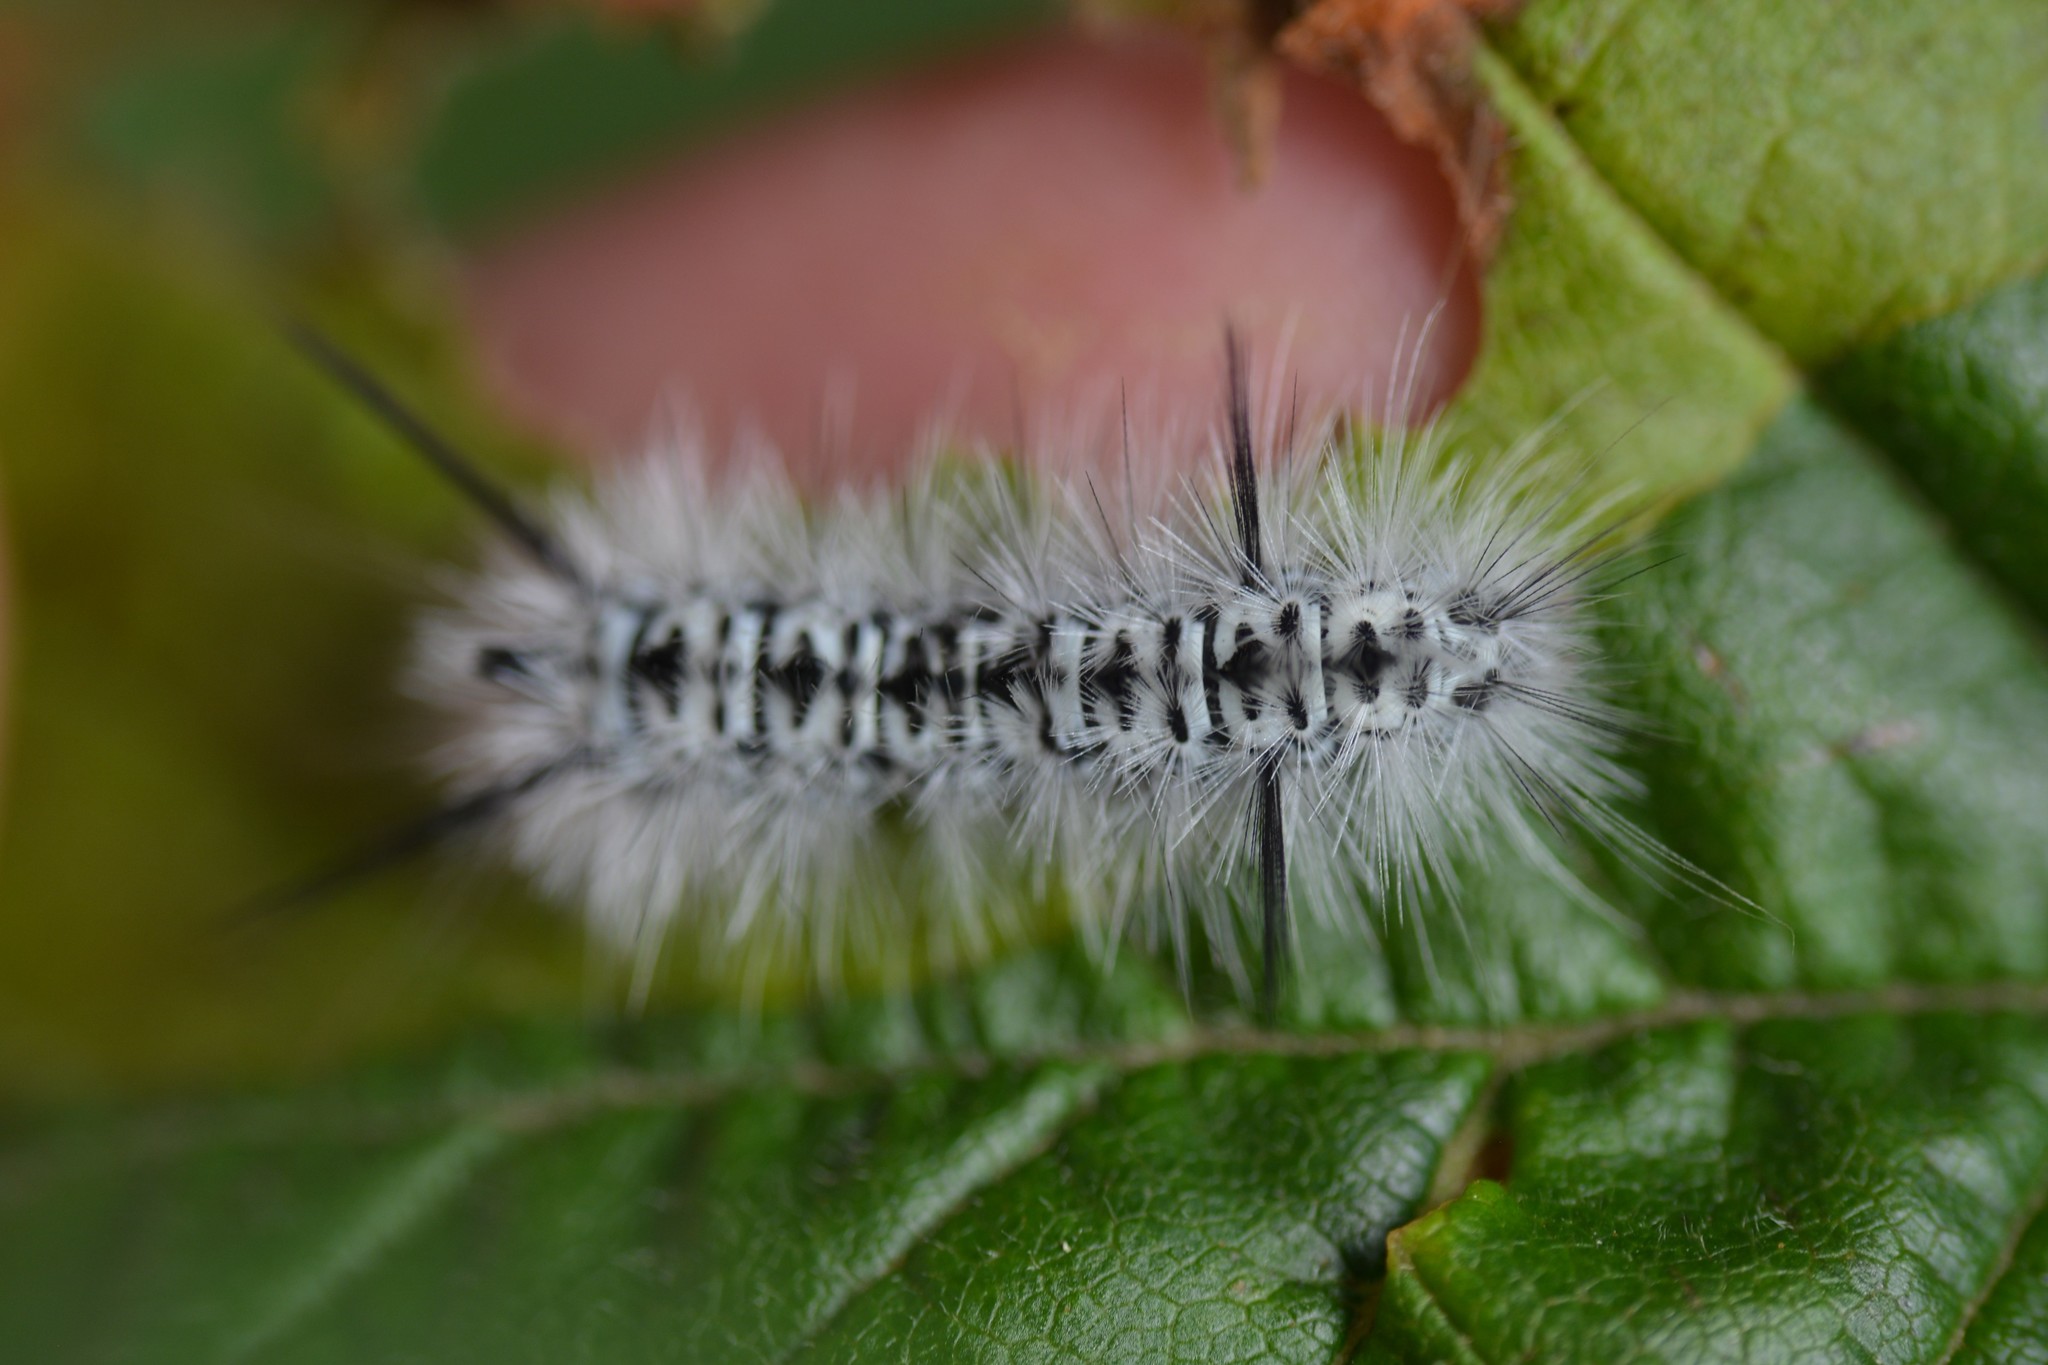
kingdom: Animalia
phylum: Arthropoda
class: Insecta
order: Lepidoptera
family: Erebidae
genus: Lophocampa
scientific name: Lophocampa caryae
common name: Hickory tussock moth
